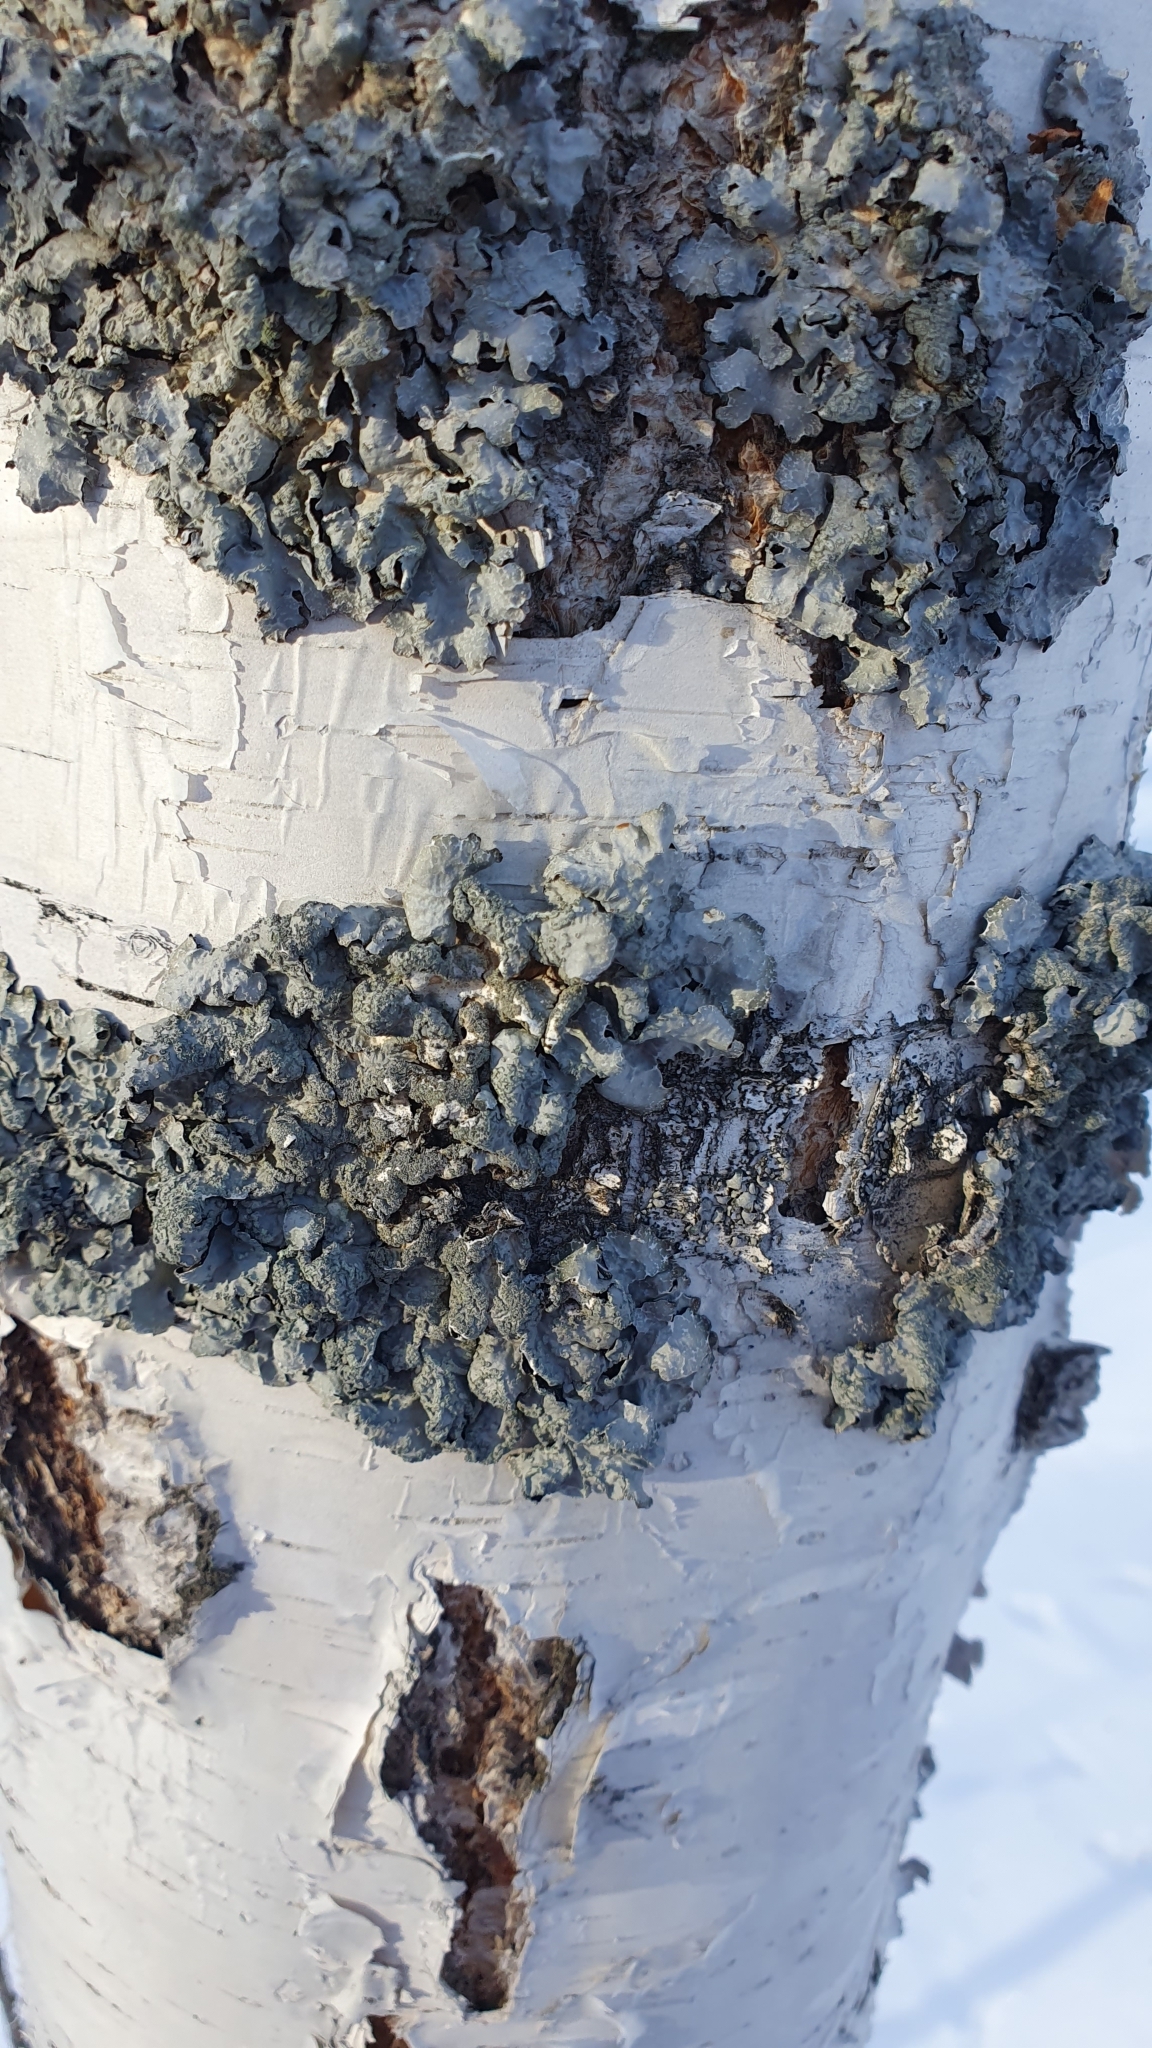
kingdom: Fungi
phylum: Ascomycota
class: Lecanoromycetes
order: Lecanorales
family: Parmeliaceae
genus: Parmelia
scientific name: Parmelia sulcata
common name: Netted shield lichen
